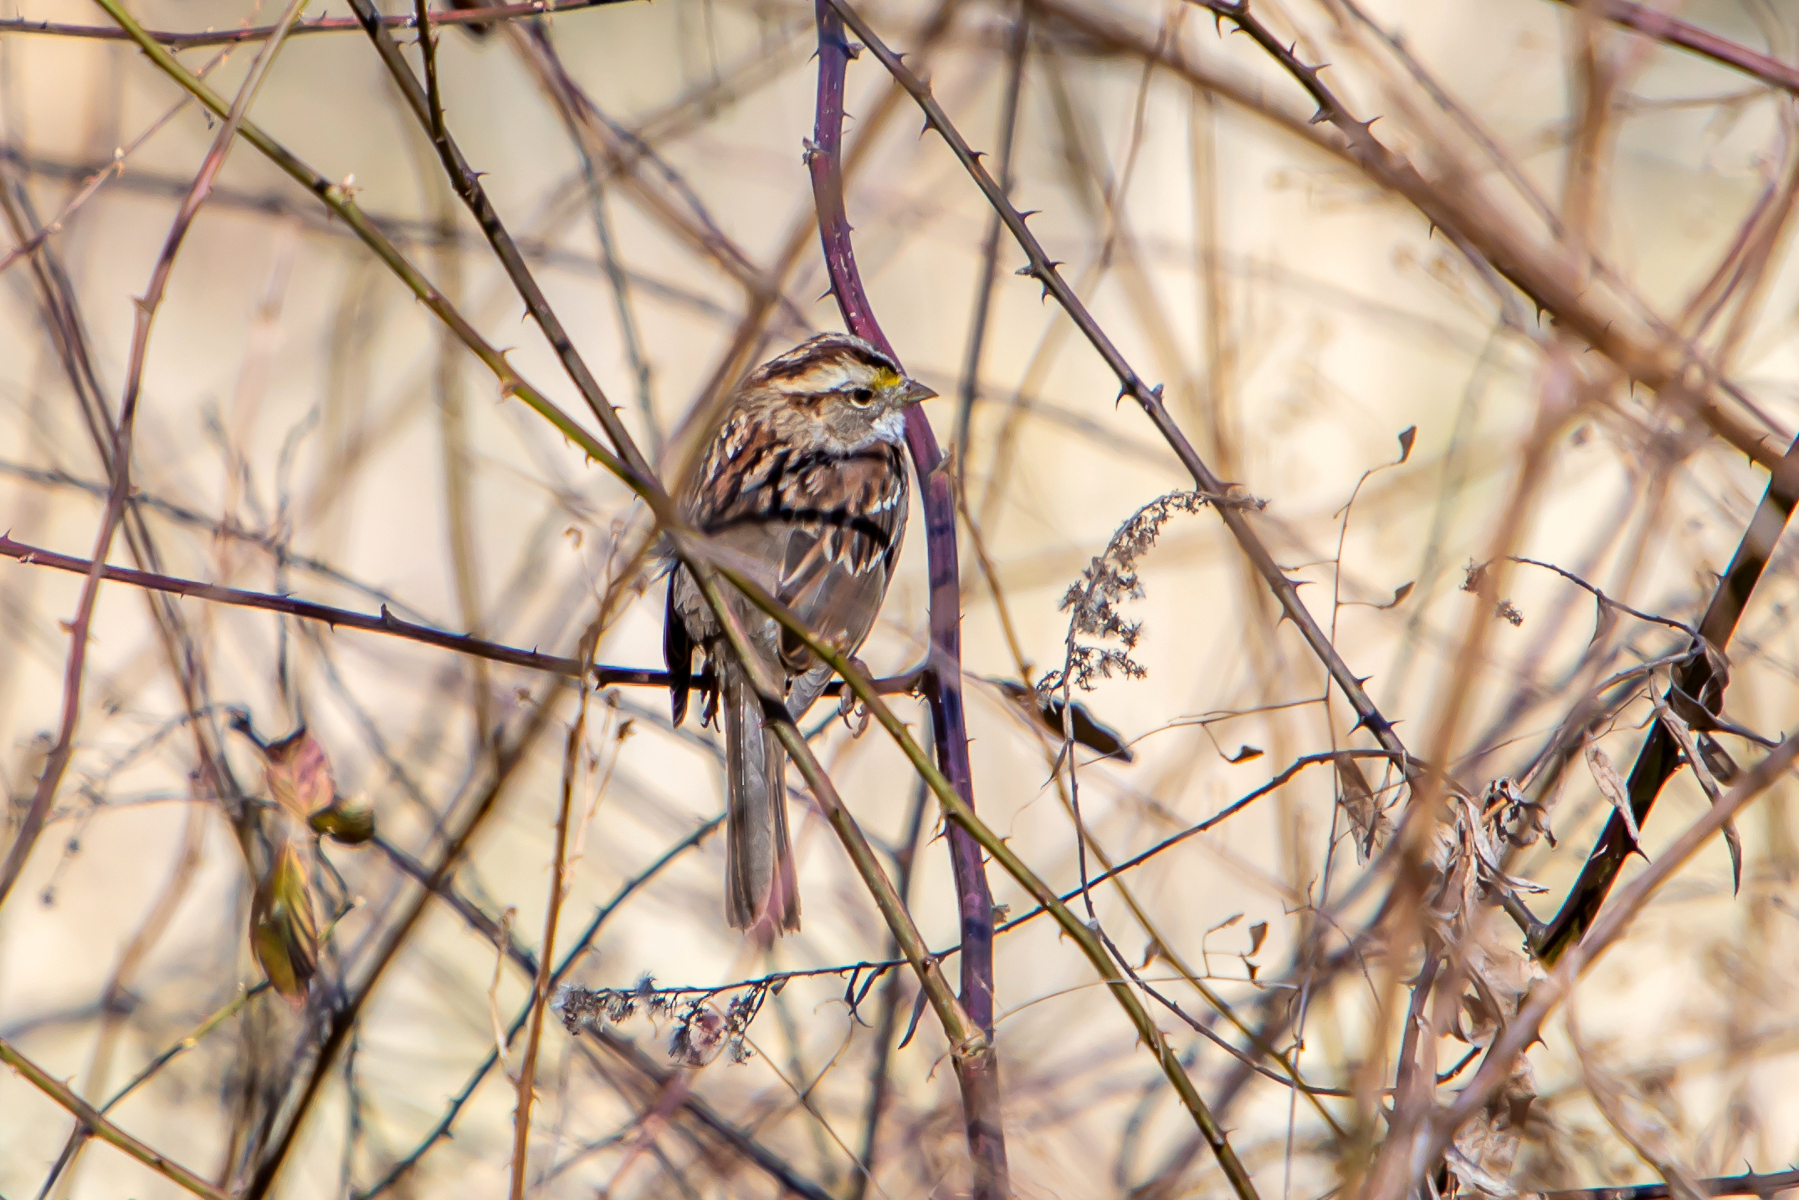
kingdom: Animalia
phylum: Chordata
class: Aves
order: Passeriformes
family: Passerellidae
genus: Zonotrichia
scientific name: Zonotrichia albicollis
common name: White-throated sparrow
